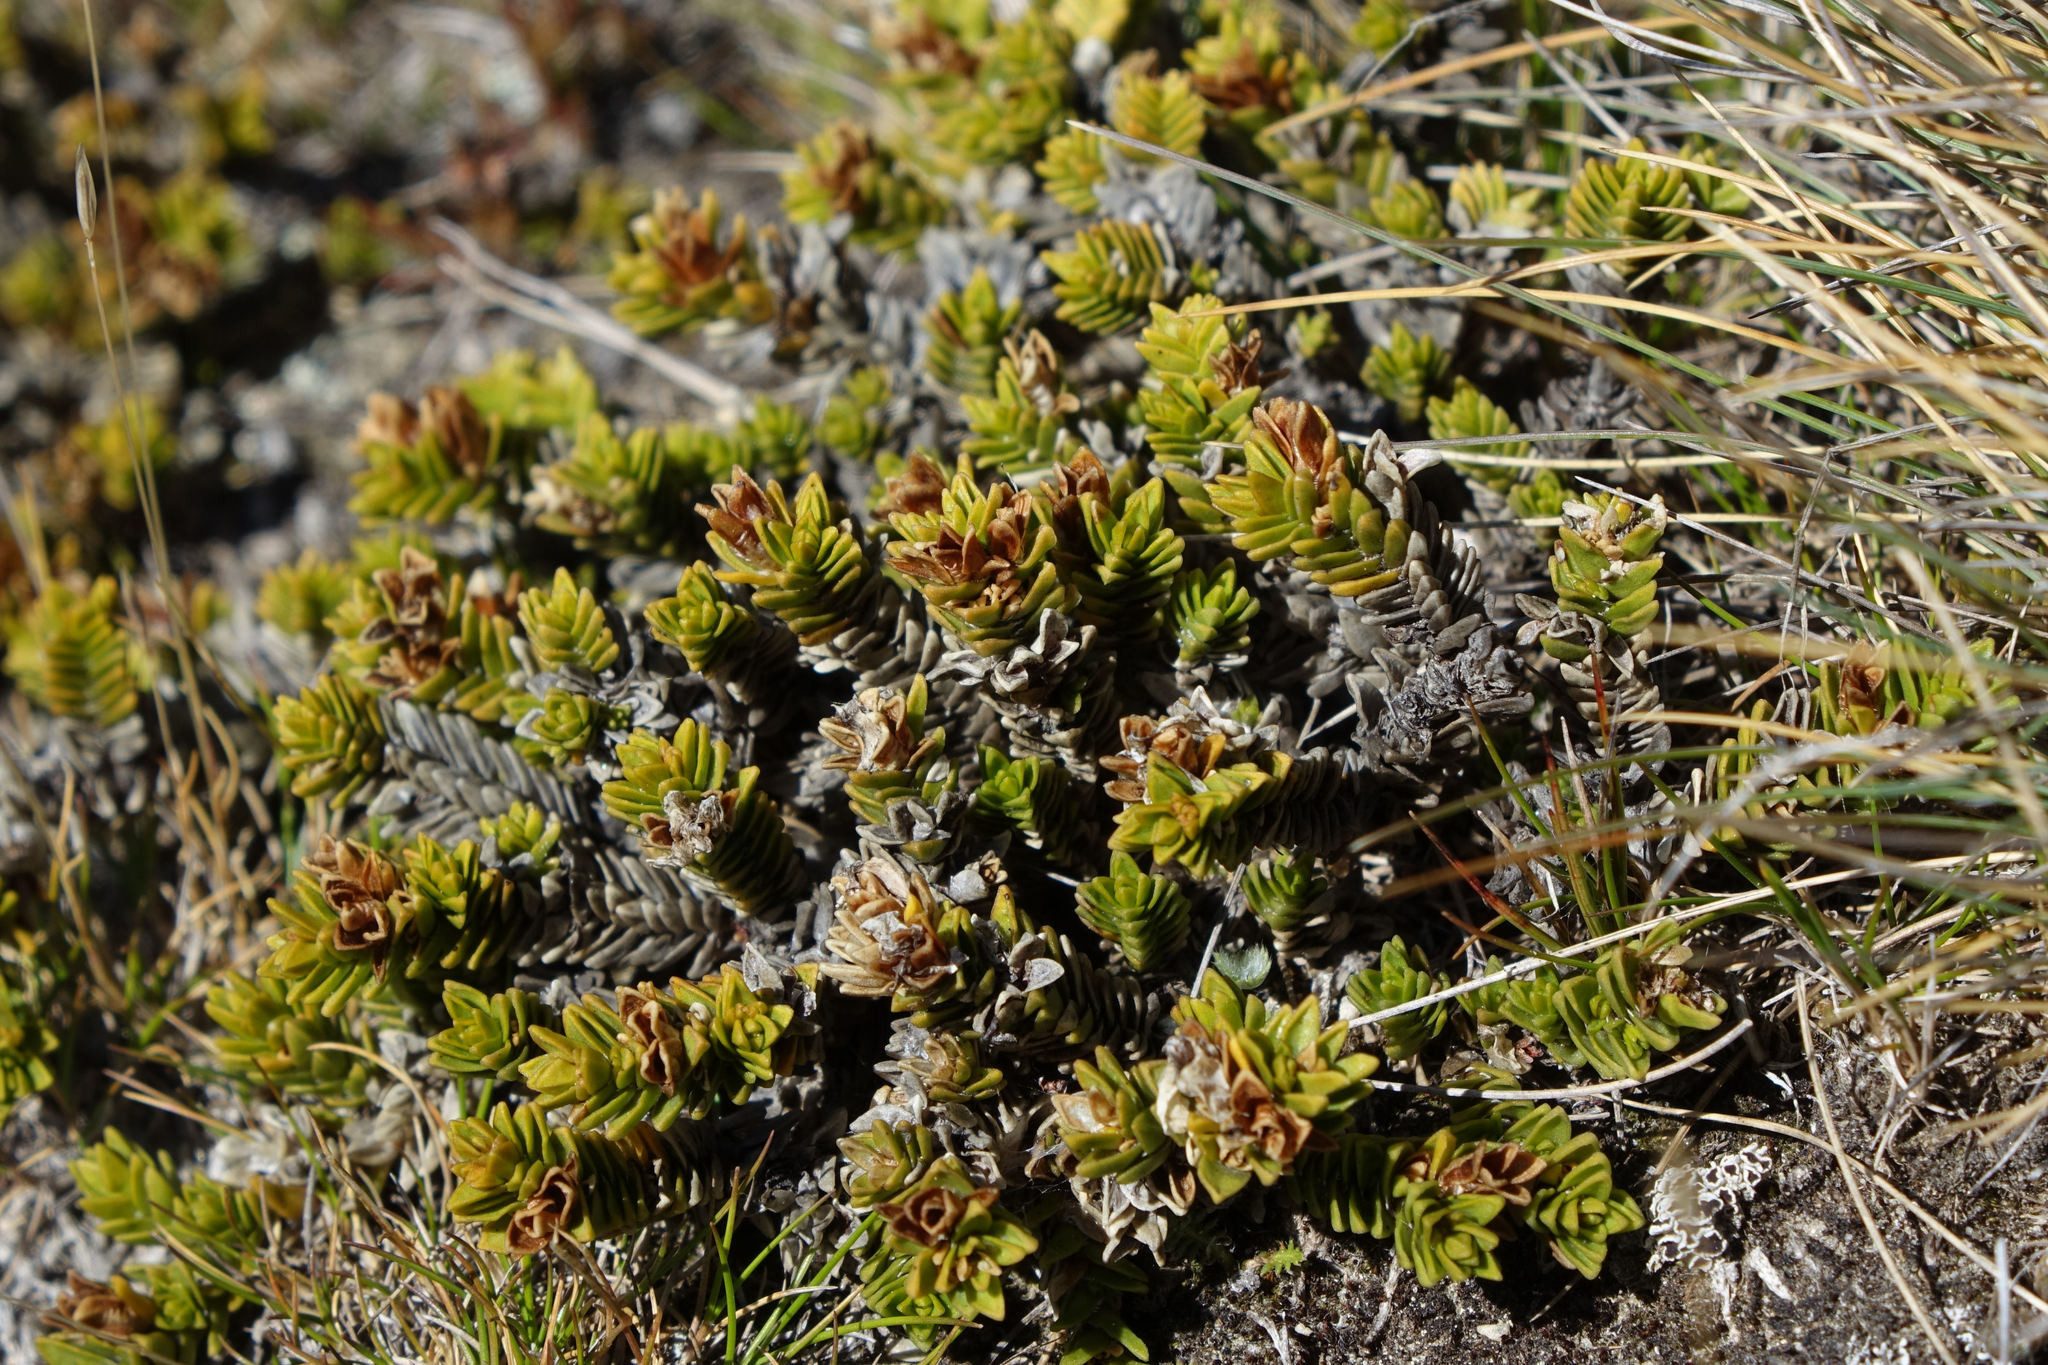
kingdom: Plantae
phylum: Tracheophyta
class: Magnoliopsida
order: Lamiales
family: Plantaginaceae
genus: Veronica
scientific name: Veronica densifolia
